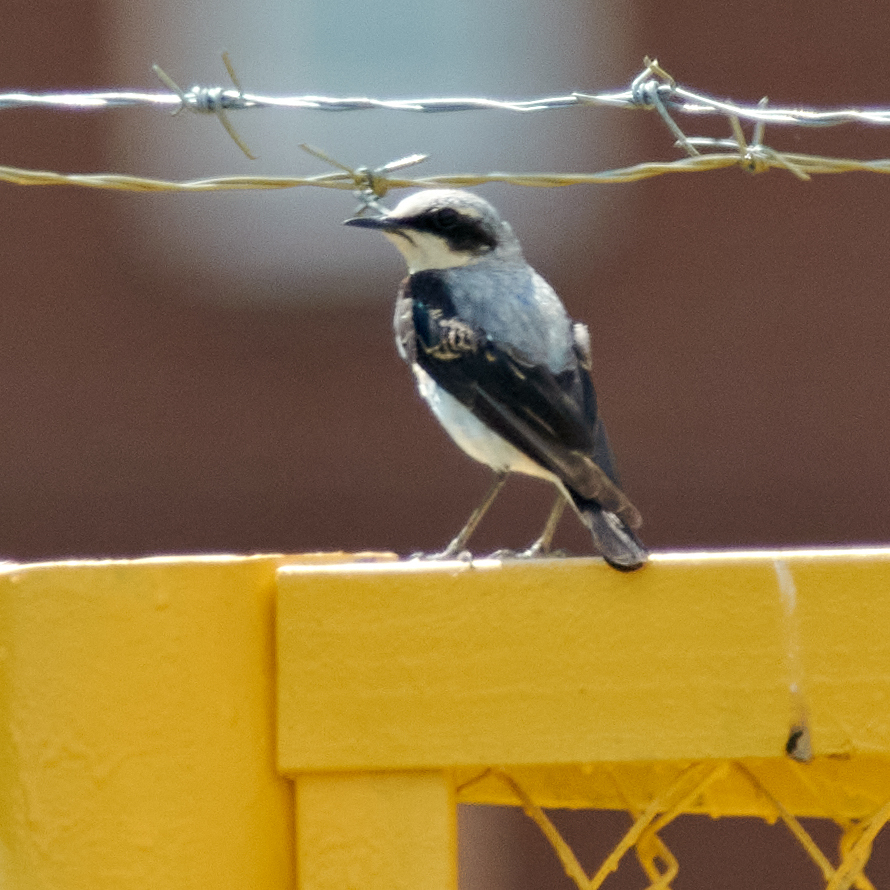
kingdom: Animalia
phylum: Chordata
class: Aves
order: Passeriformes
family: Muscicapidae
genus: Oenanthe
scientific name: Oenanthe oenanthe
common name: Northern wheatear
